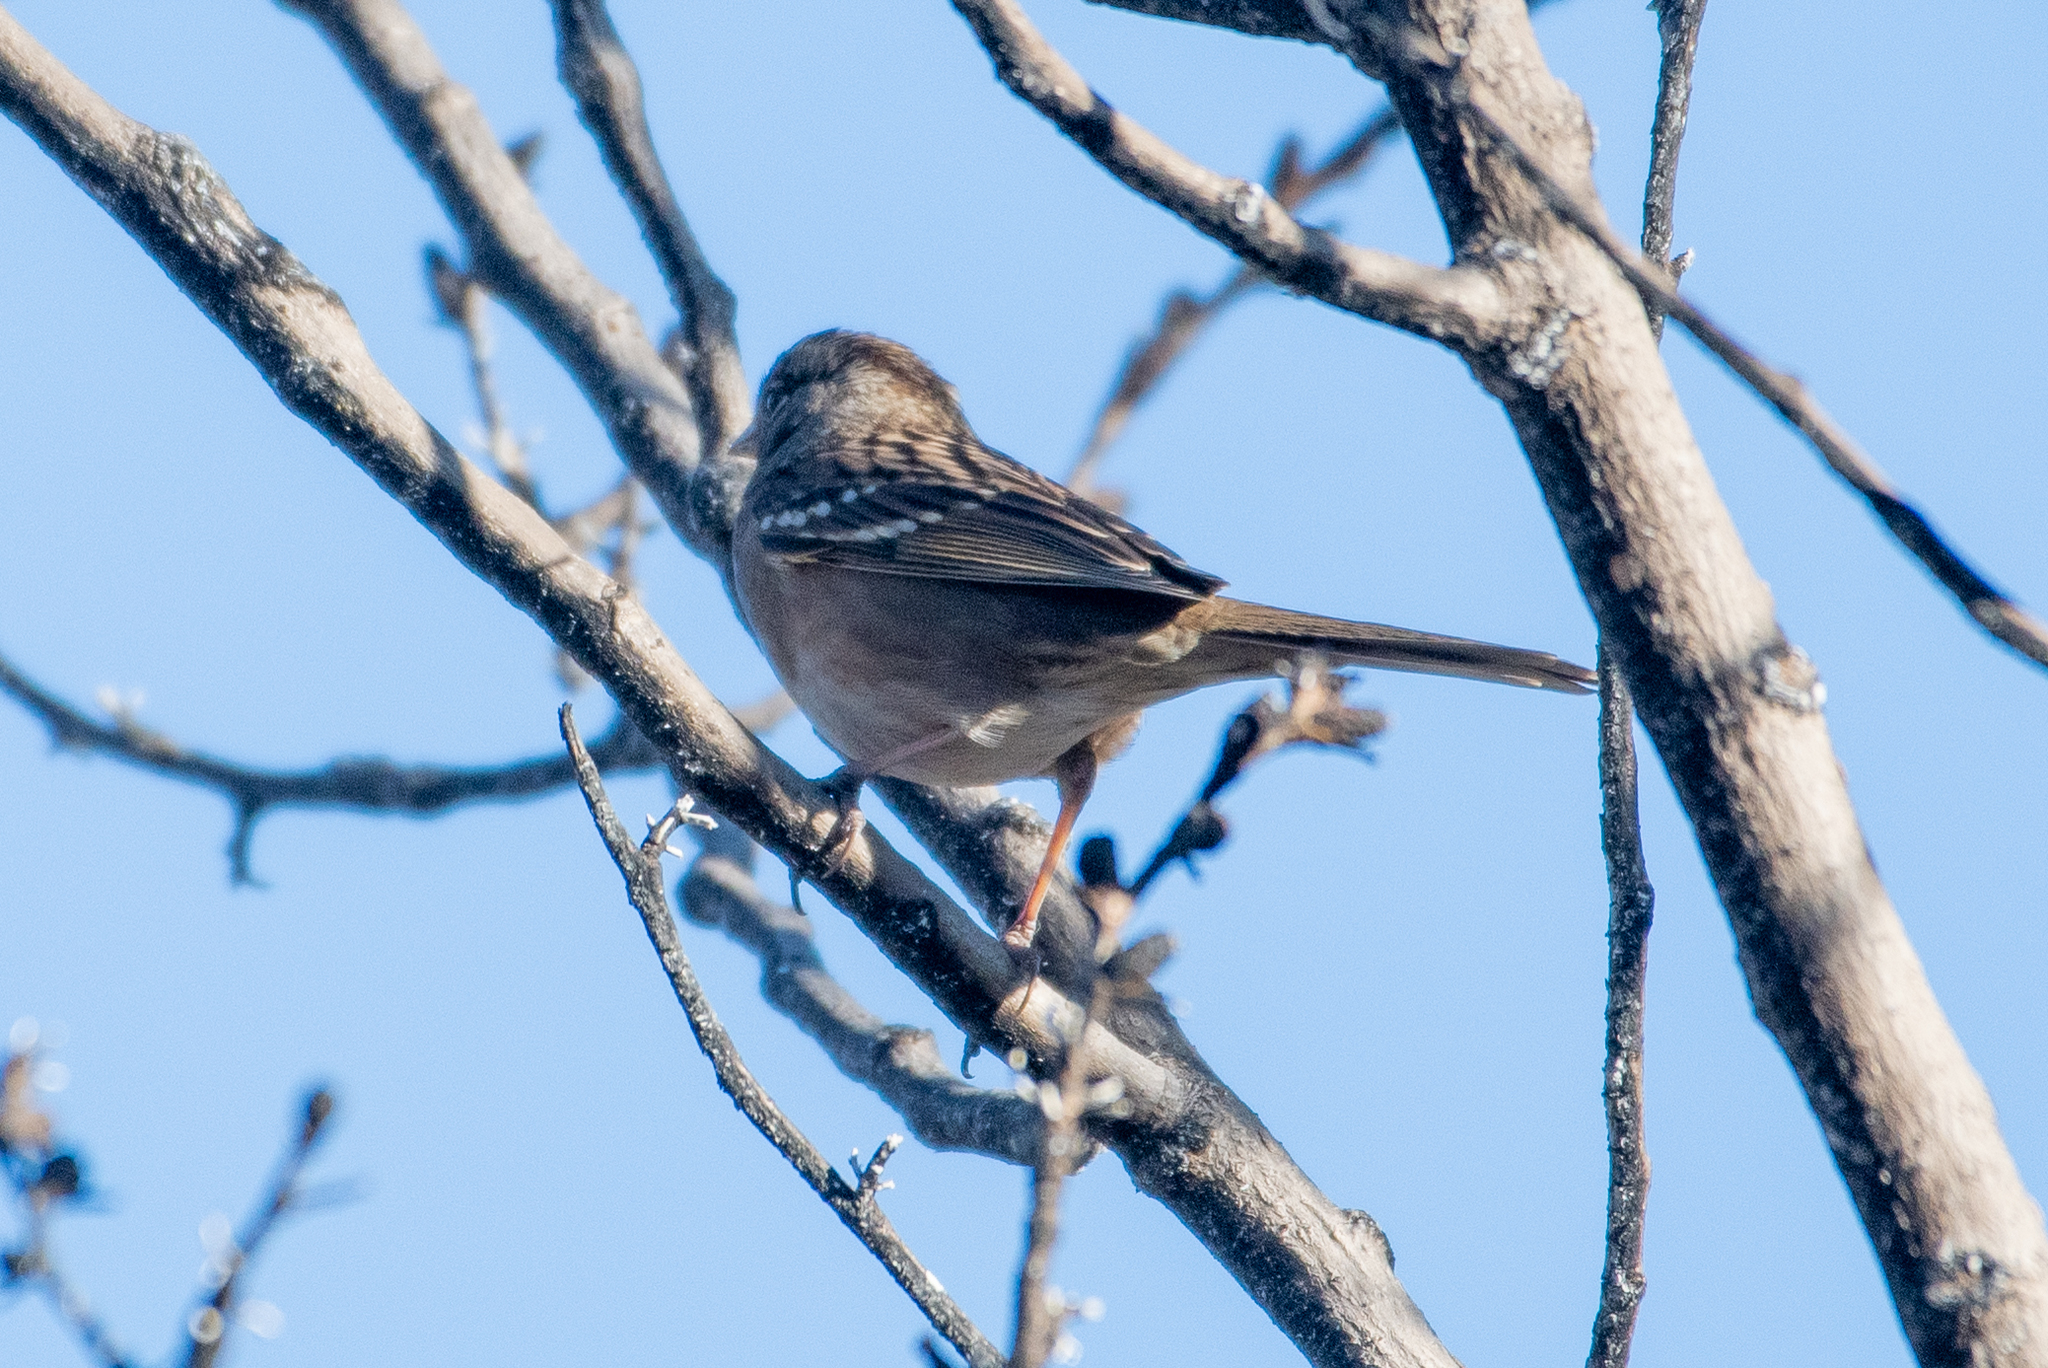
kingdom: Animalia
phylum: Chordata
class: Aves
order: Passeriformes
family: Passerellidae
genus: Zonotrichia
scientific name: Zonotrichia atricapilla
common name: Golden-crowned sparrow
